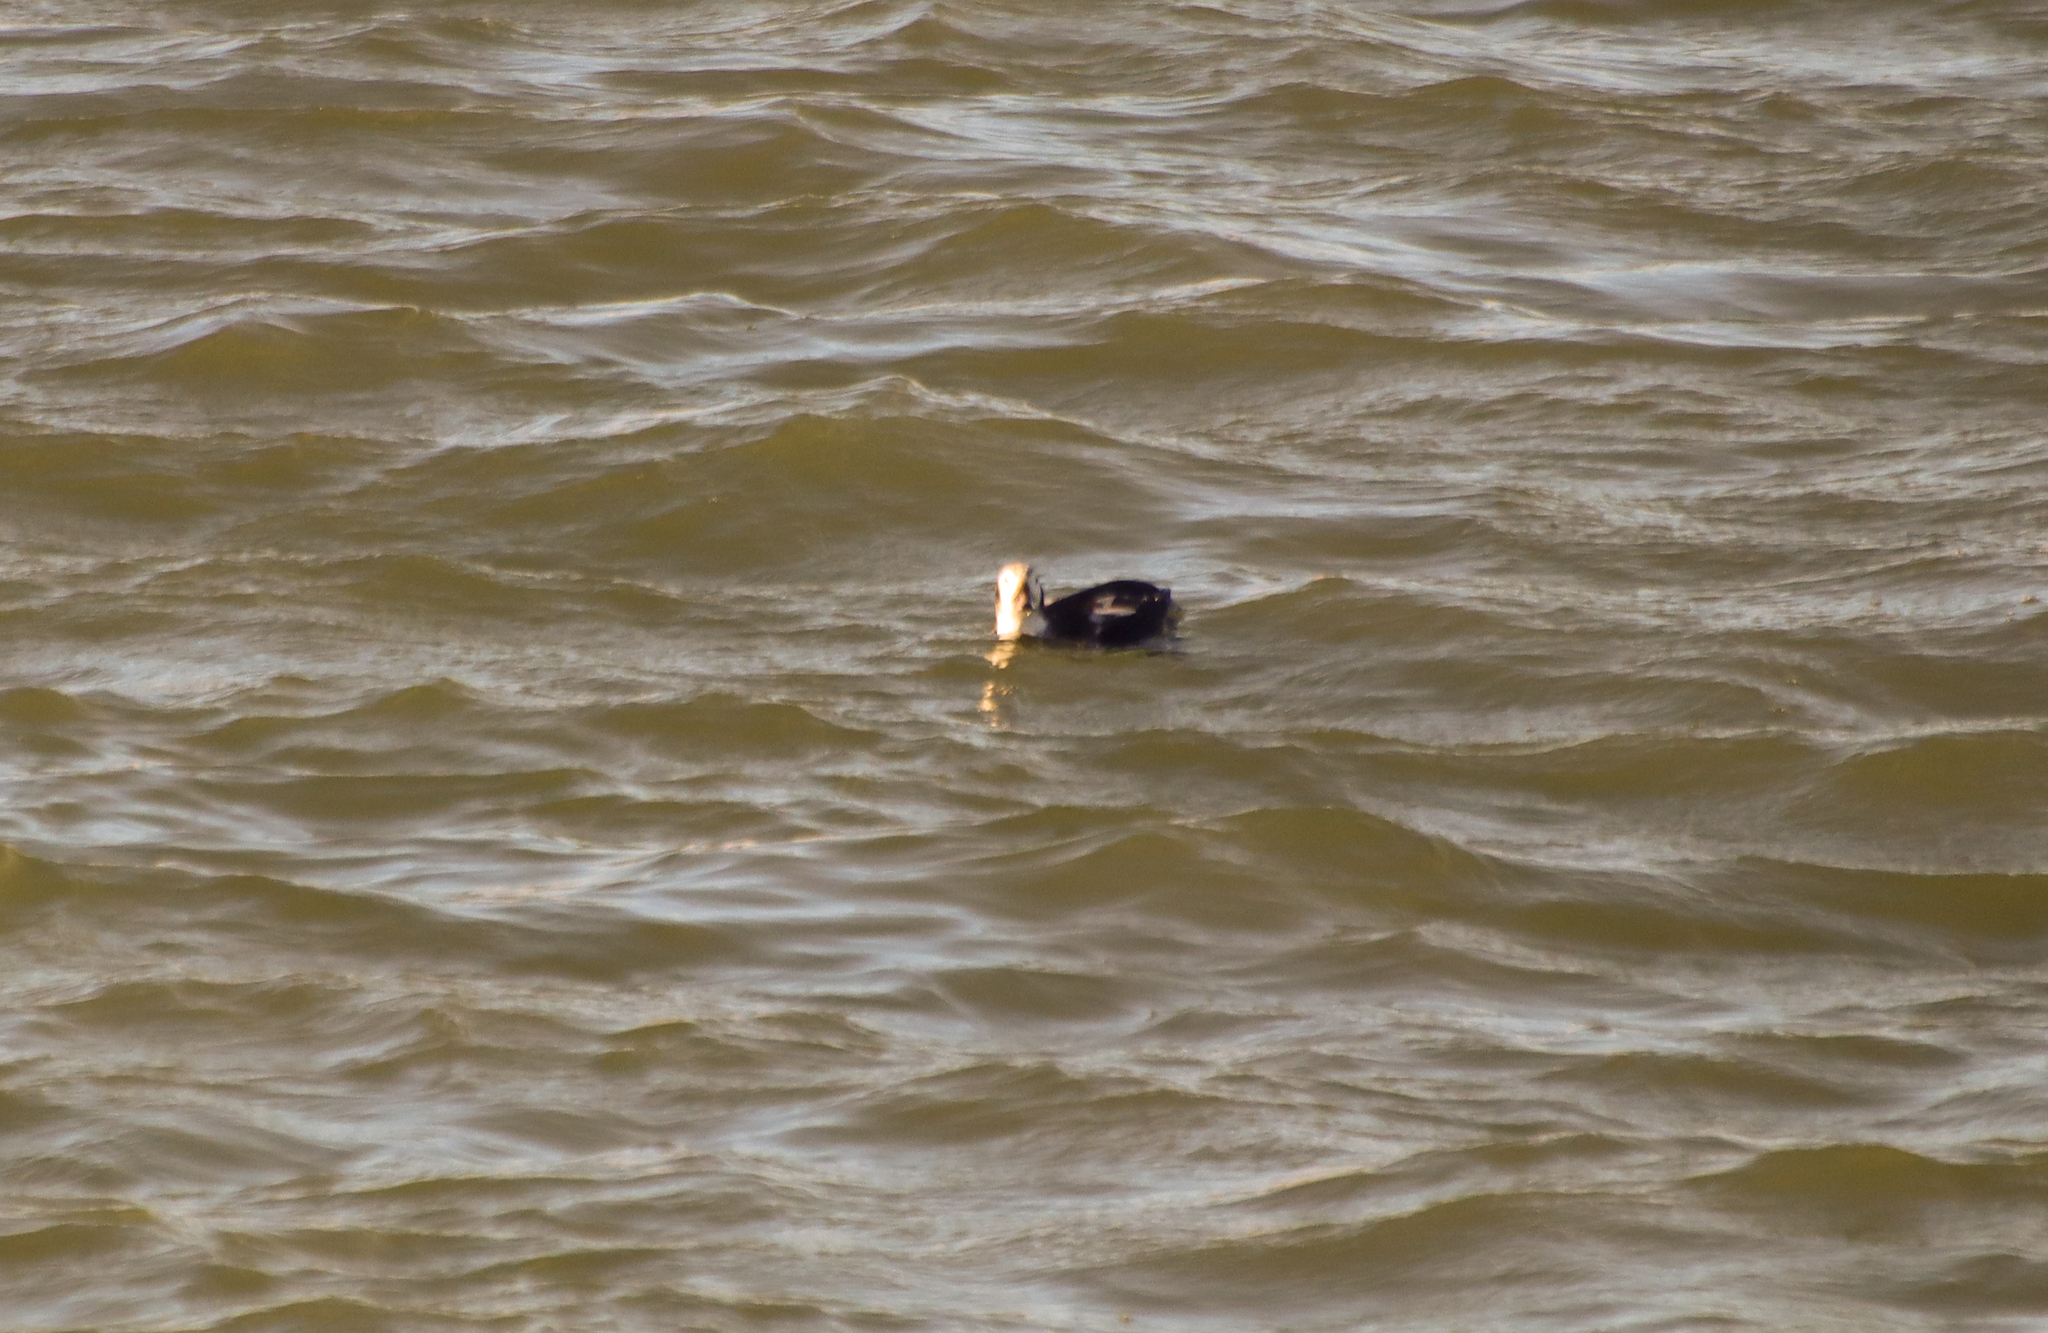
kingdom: Animalia
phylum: Chordata
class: Aves
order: Anseriformes
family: Anatidae
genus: Clangula
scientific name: Clangula hyemalis
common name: Long-tailed duck
